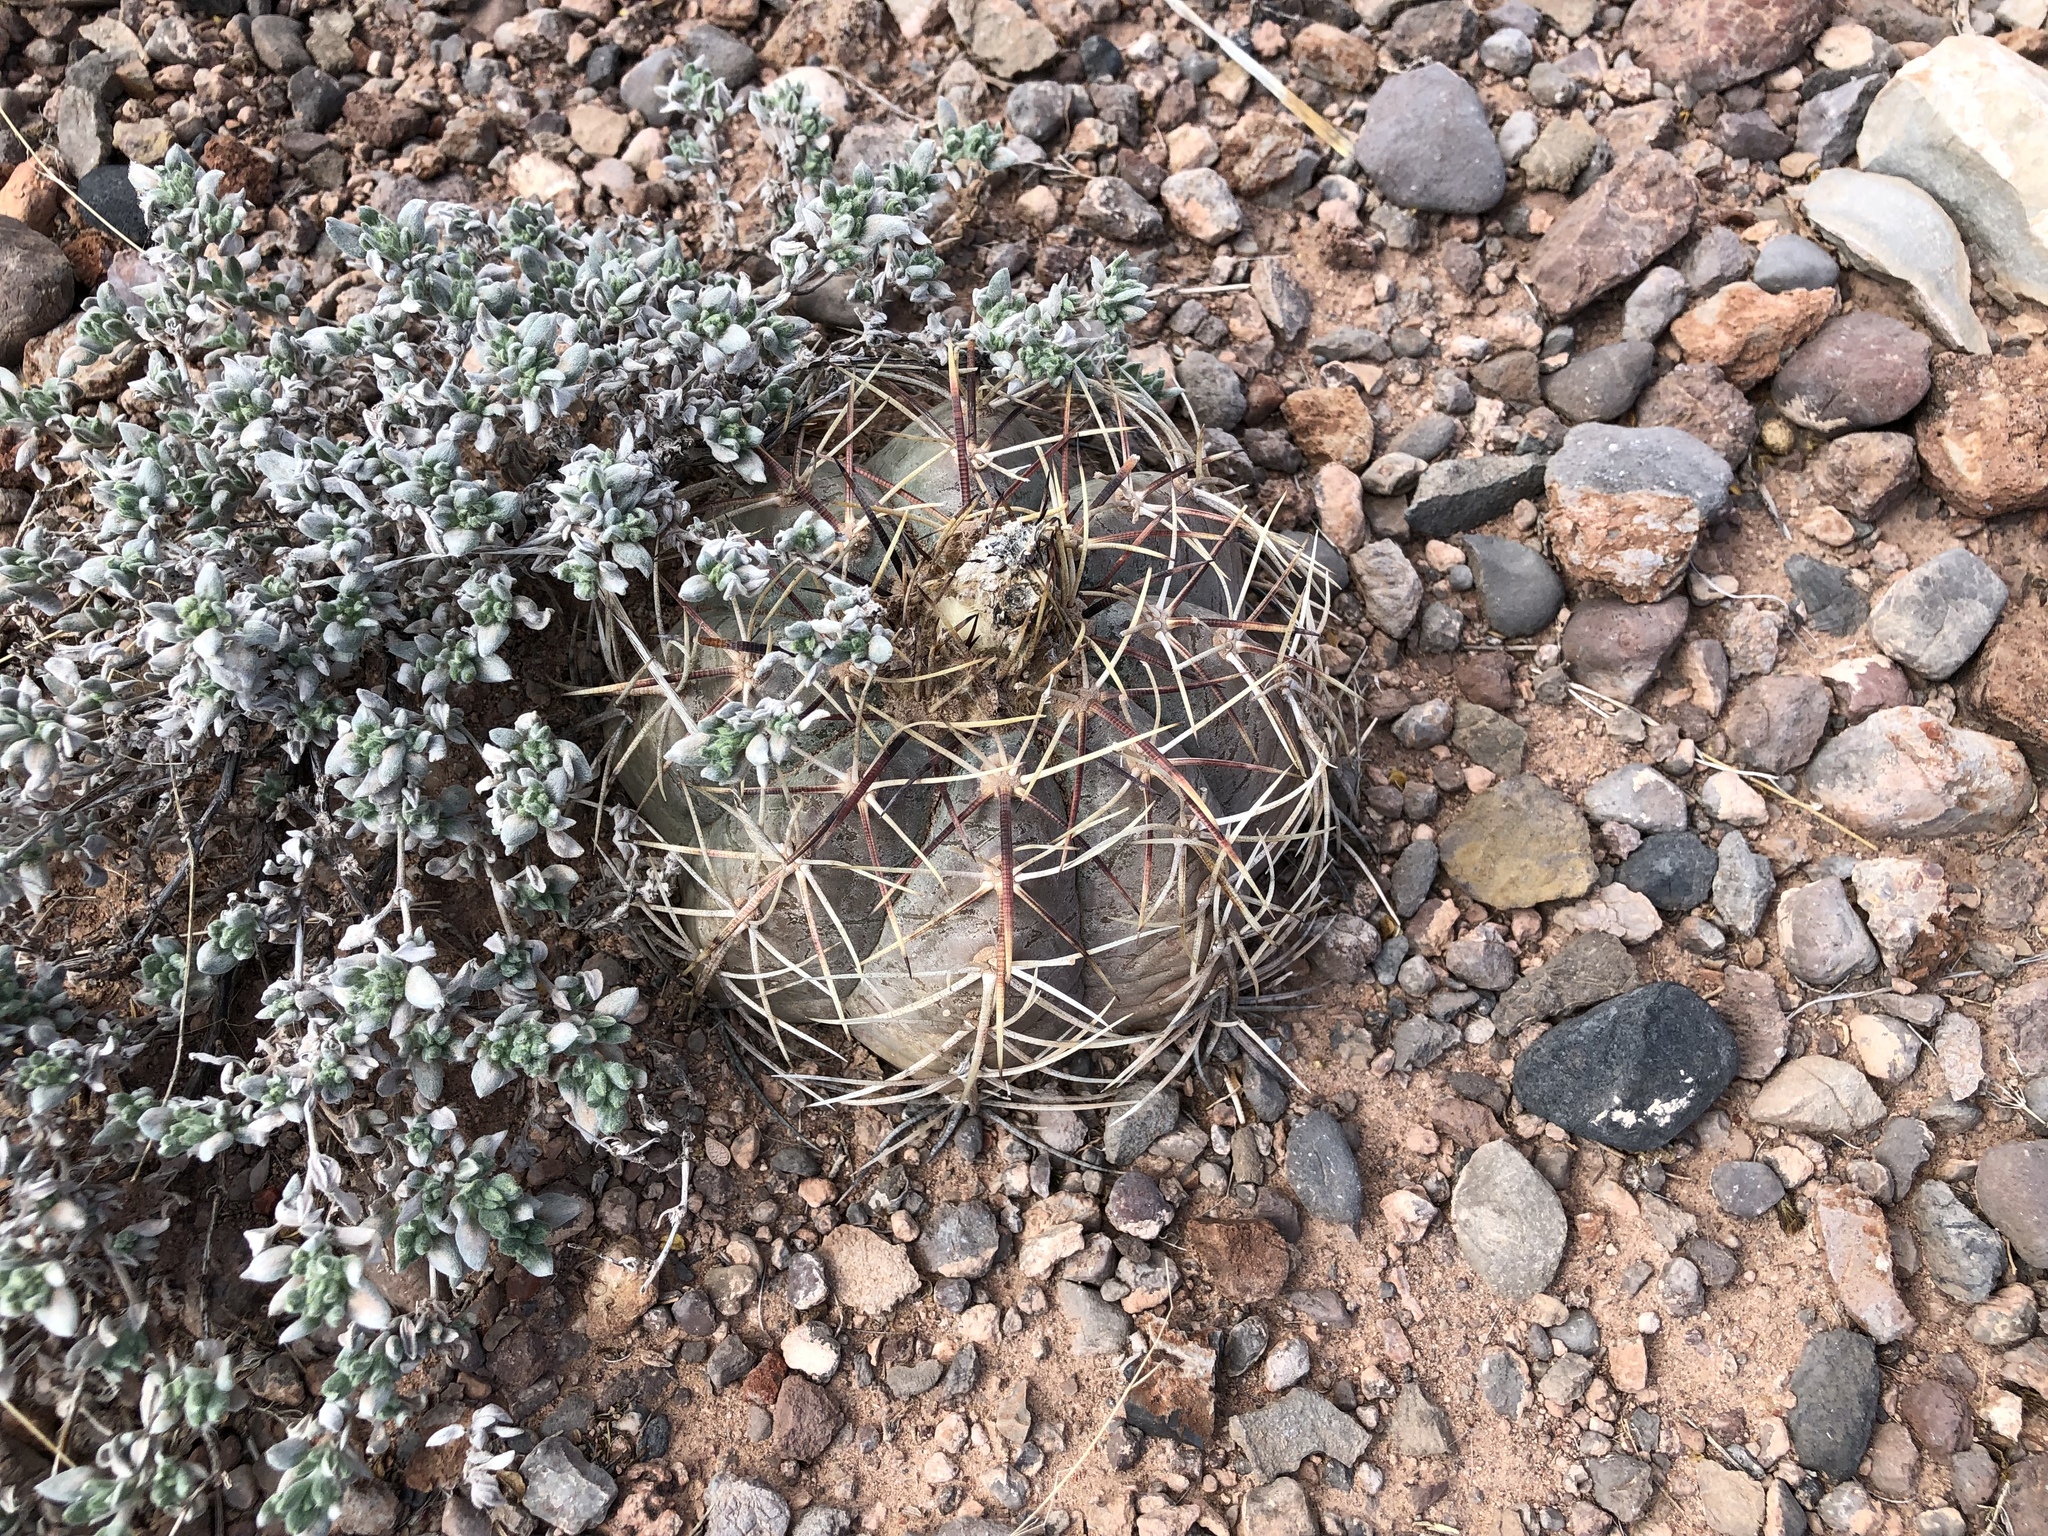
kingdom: Plantae
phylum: Tracheophyta
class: Magnoliopsida
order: Caryophyllales
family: Cactaceae
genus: Echinocactus
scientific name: Echinocactus horizonthalonius
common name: Devilshead
